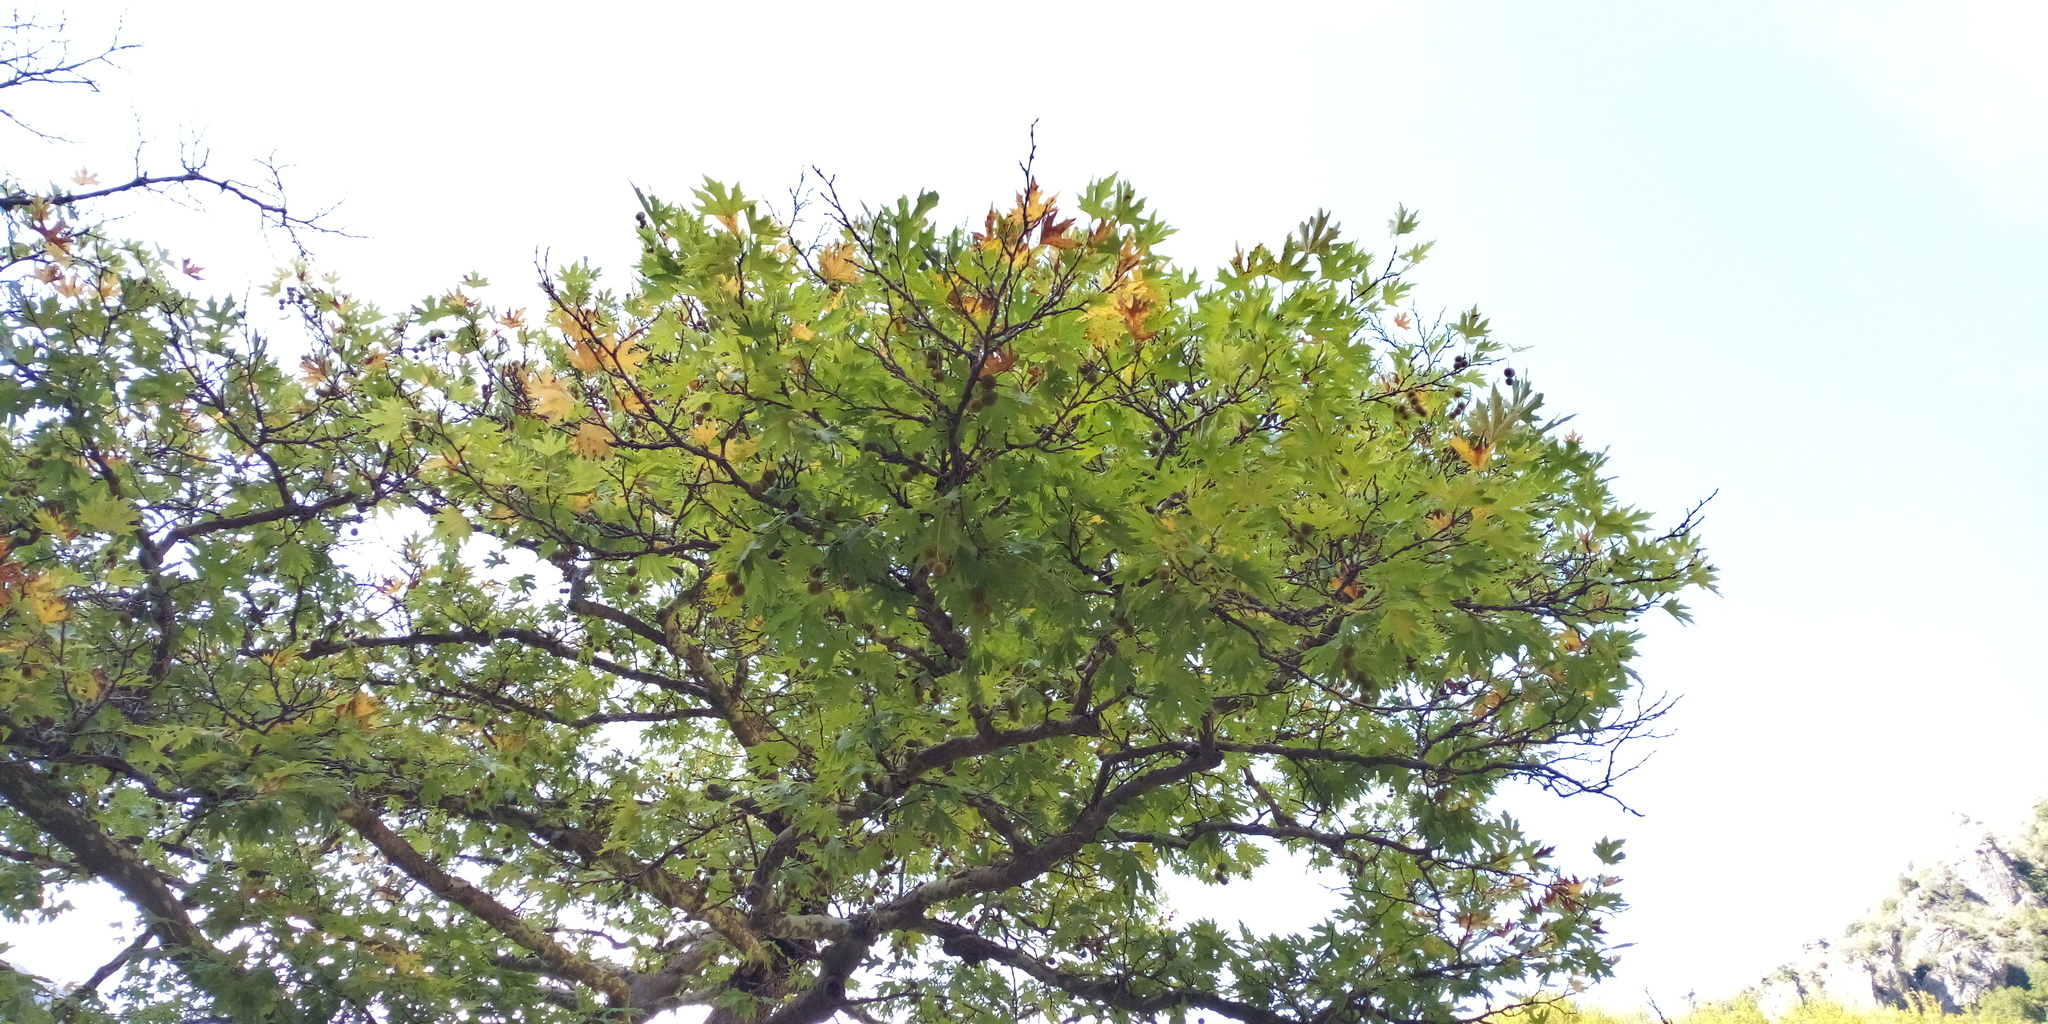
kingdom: Plantae
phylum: Tracheophyta
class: Magnoliopsida
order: Proteales
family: Platanaceae
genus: Platanus
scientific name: Platanus orientalis
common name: Oriental plane
